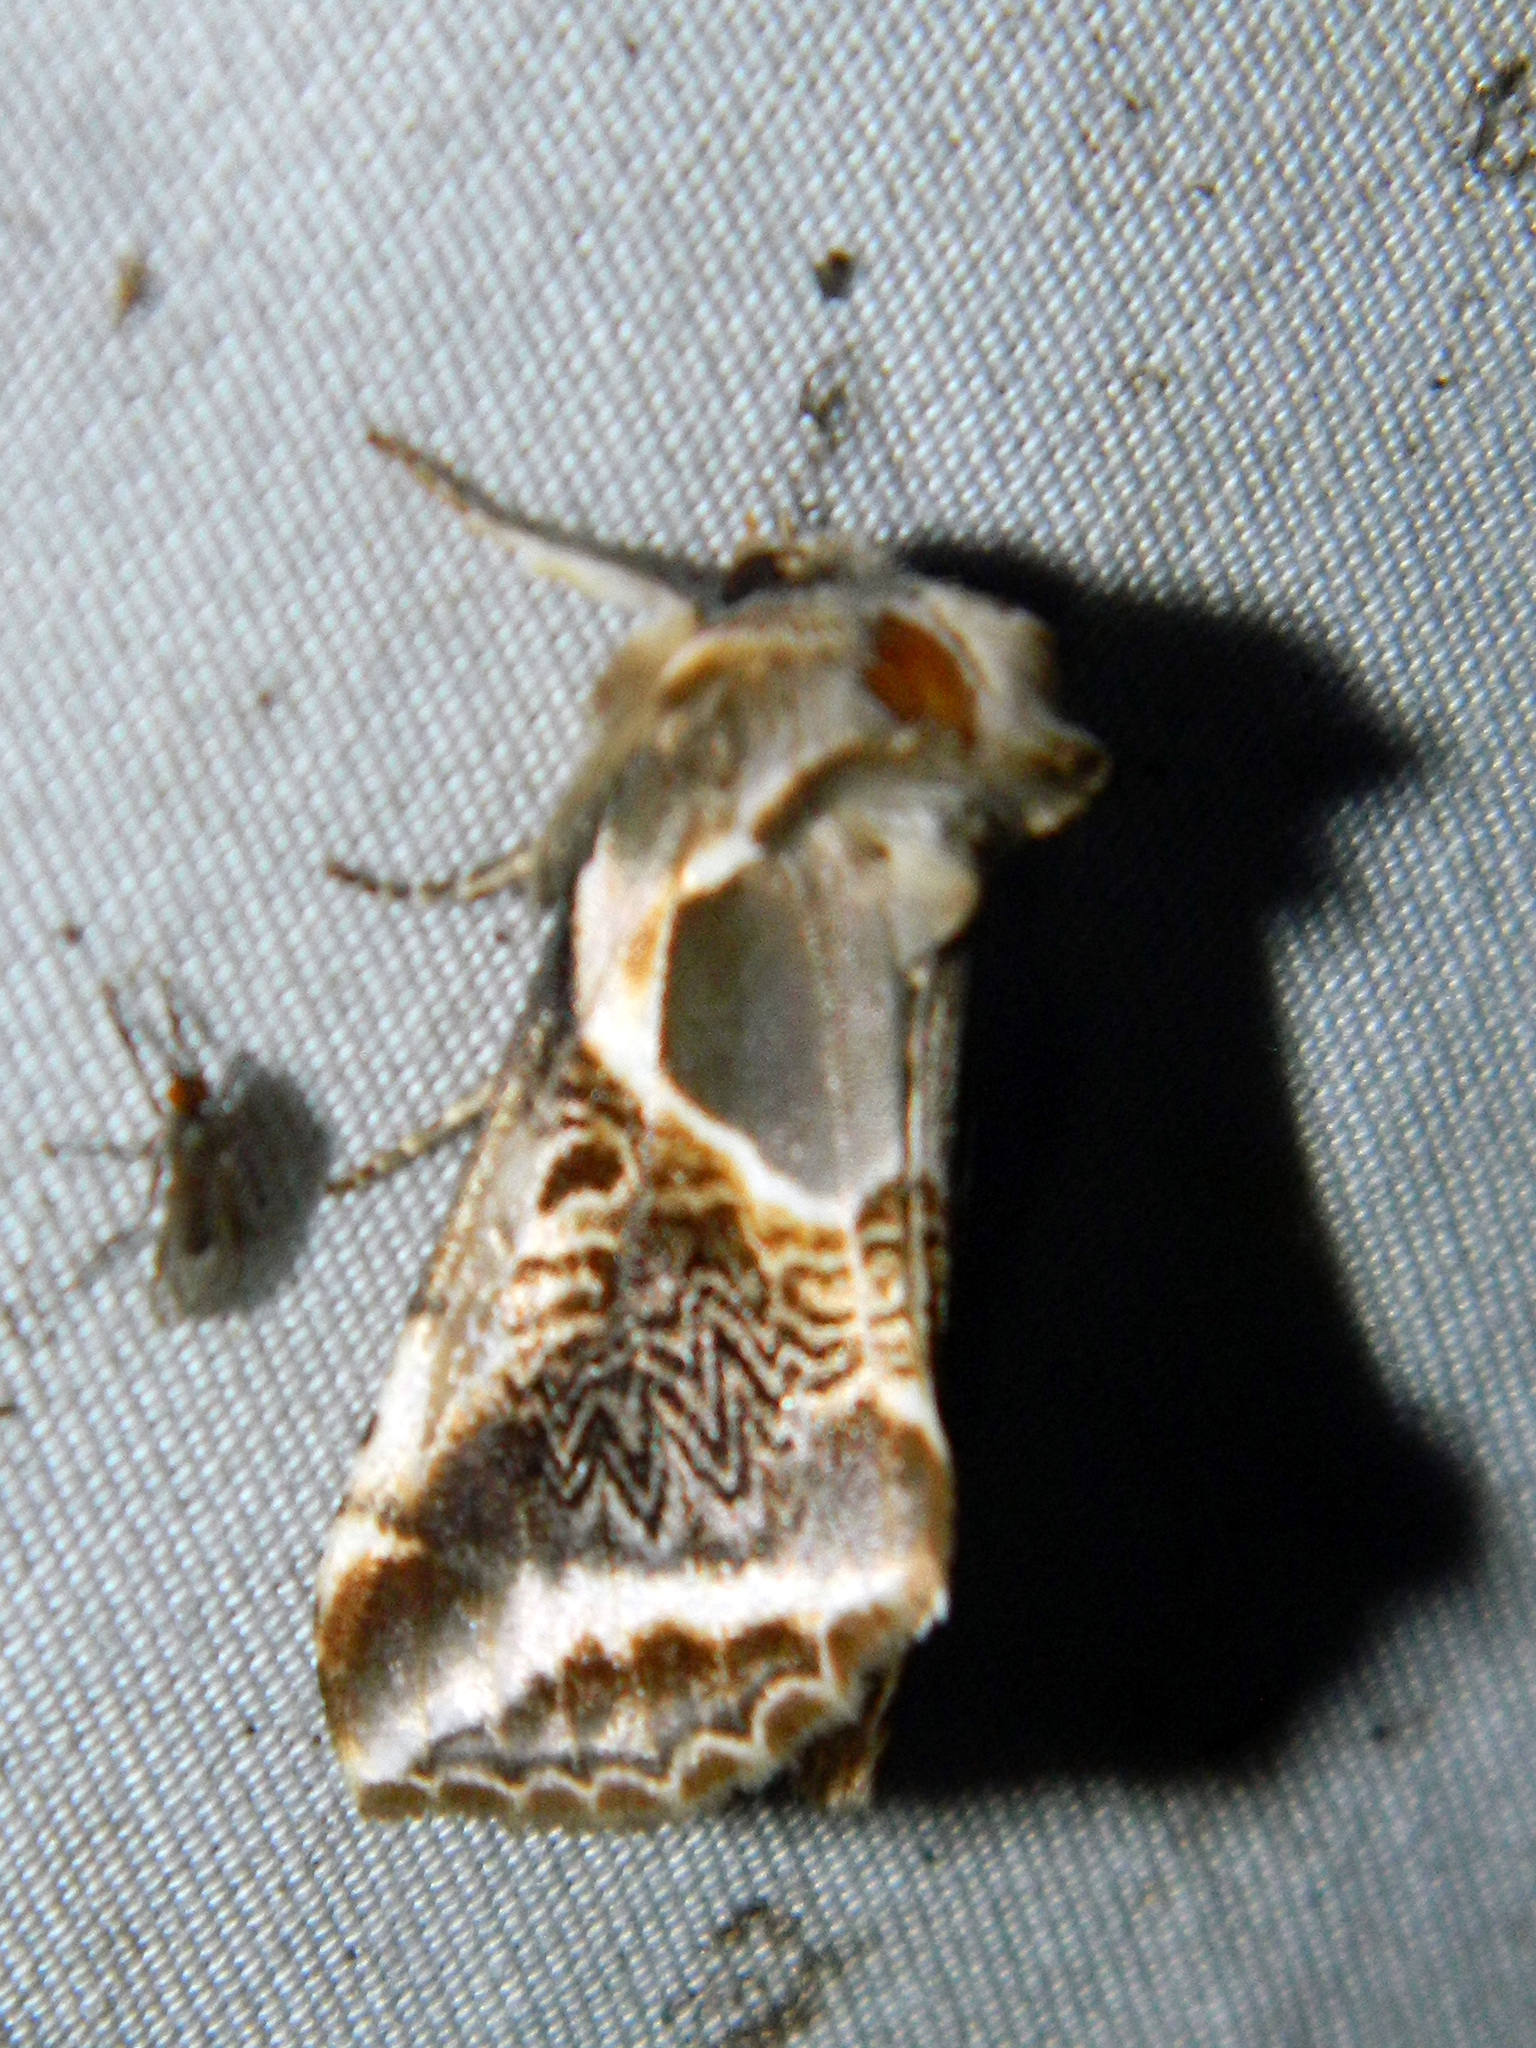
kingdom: Animalia
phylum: Arthropoda
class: Insecta
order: Lepidoptera
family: Drepanidae
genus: Habrosyne
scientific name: Habrosyne scripta
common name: Lettered habrosyne moth
